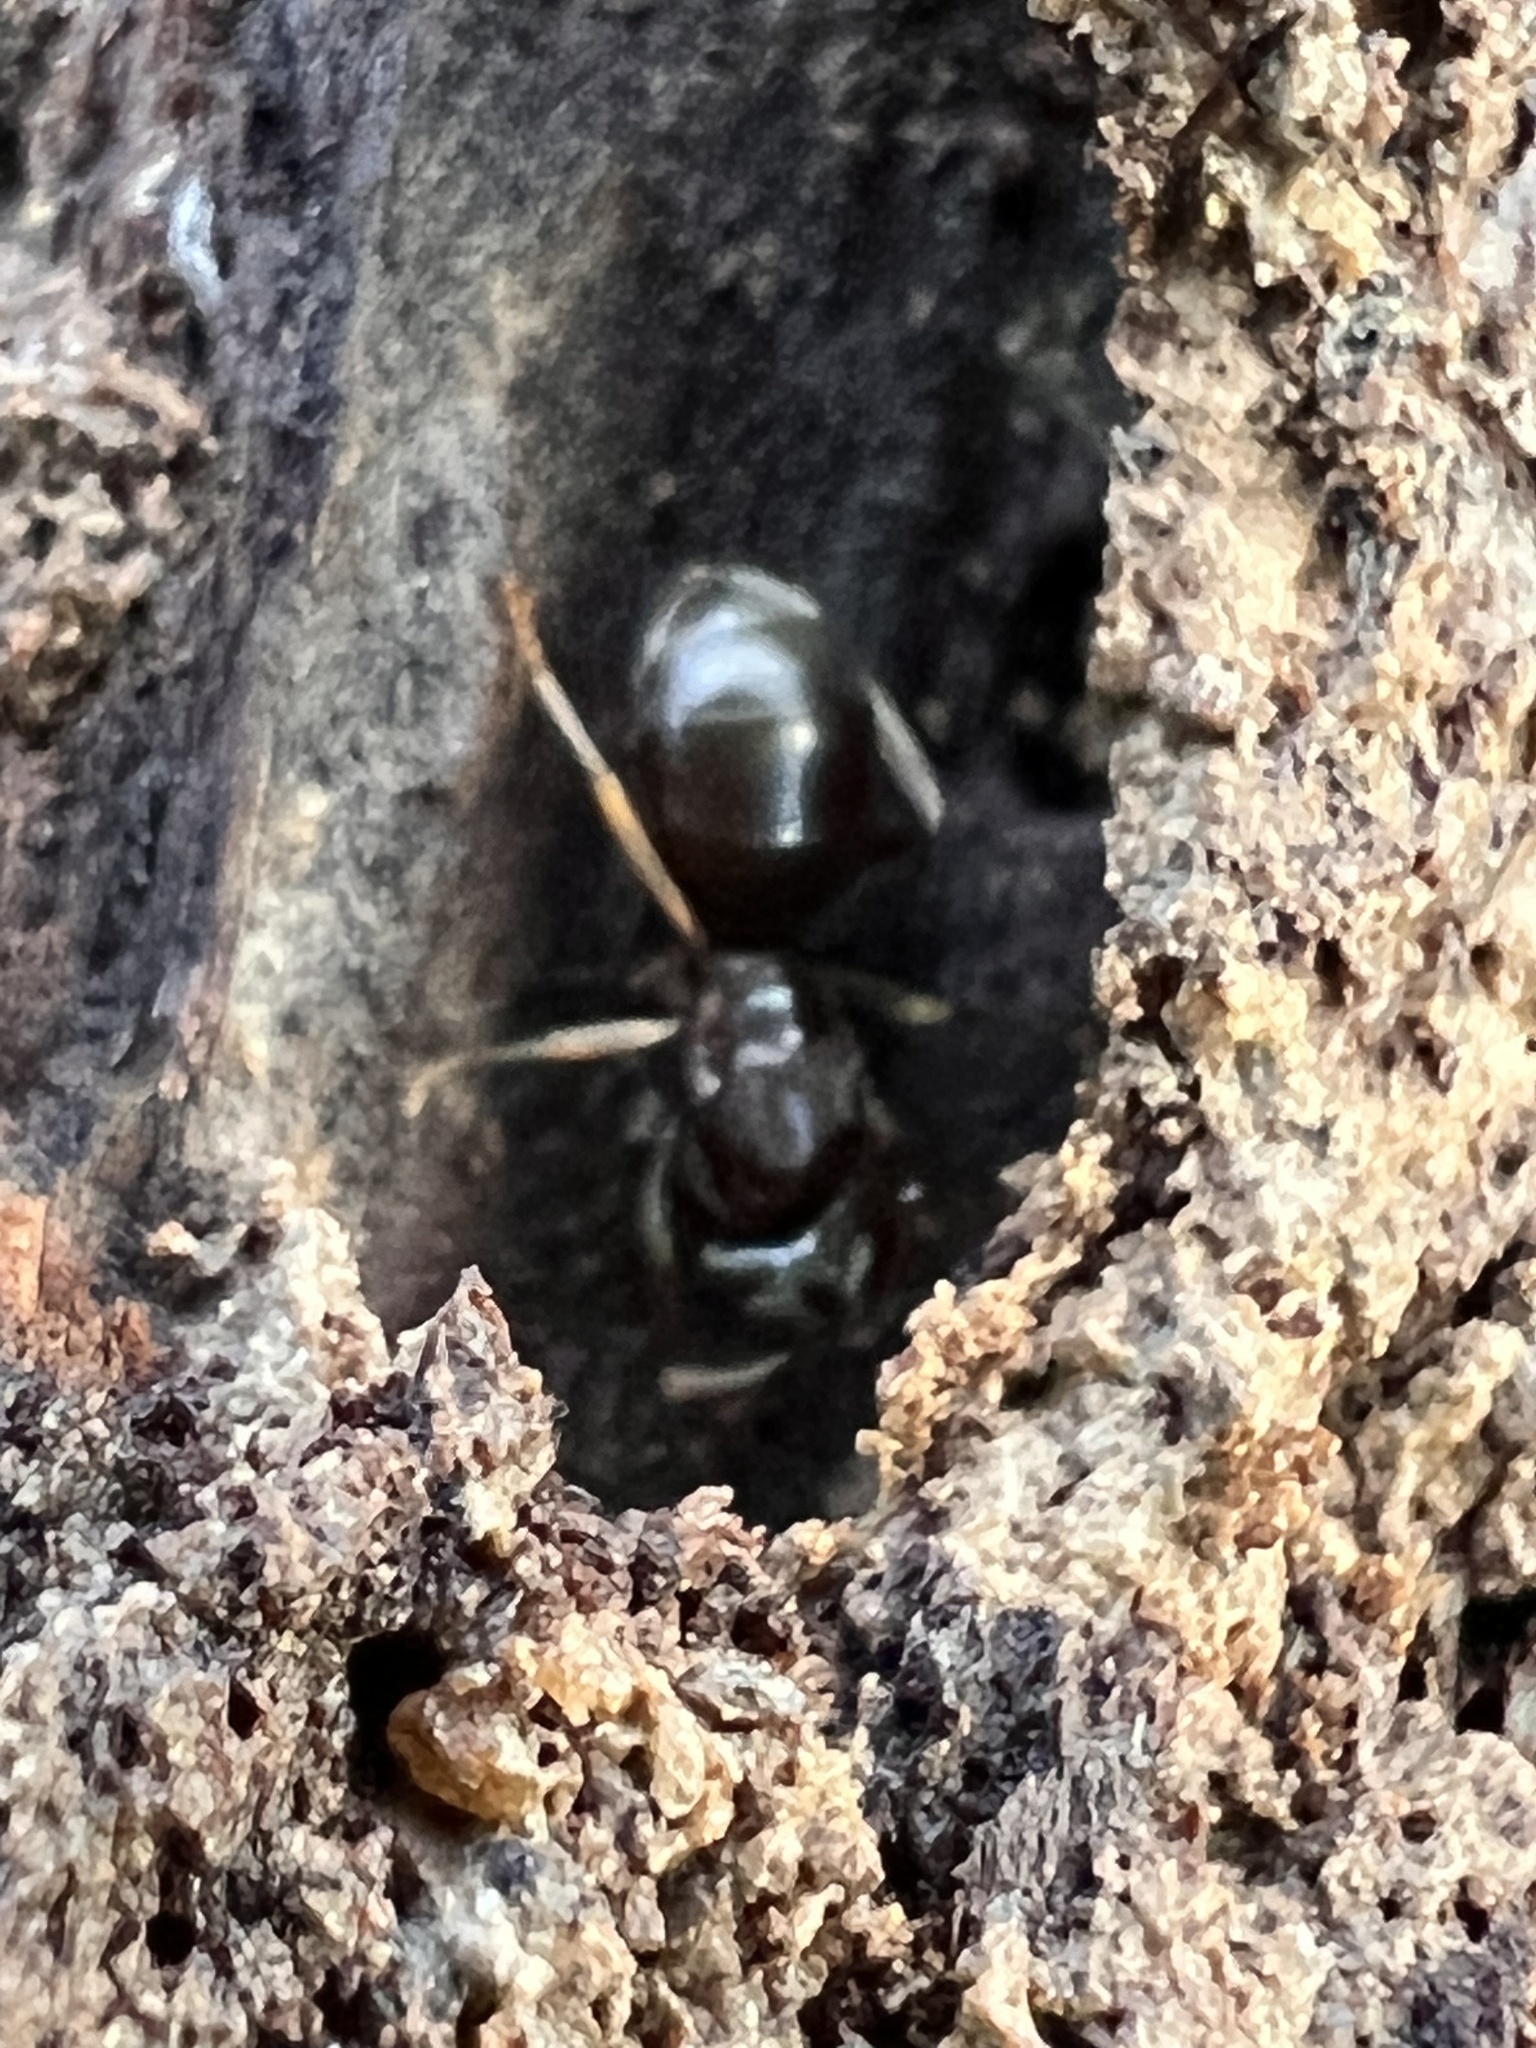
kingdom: Animalia
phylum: Arthropoda
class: Insecta
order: Hymenoptera
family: Formicidae
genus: Lasius
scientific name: Lasius aphidicola
